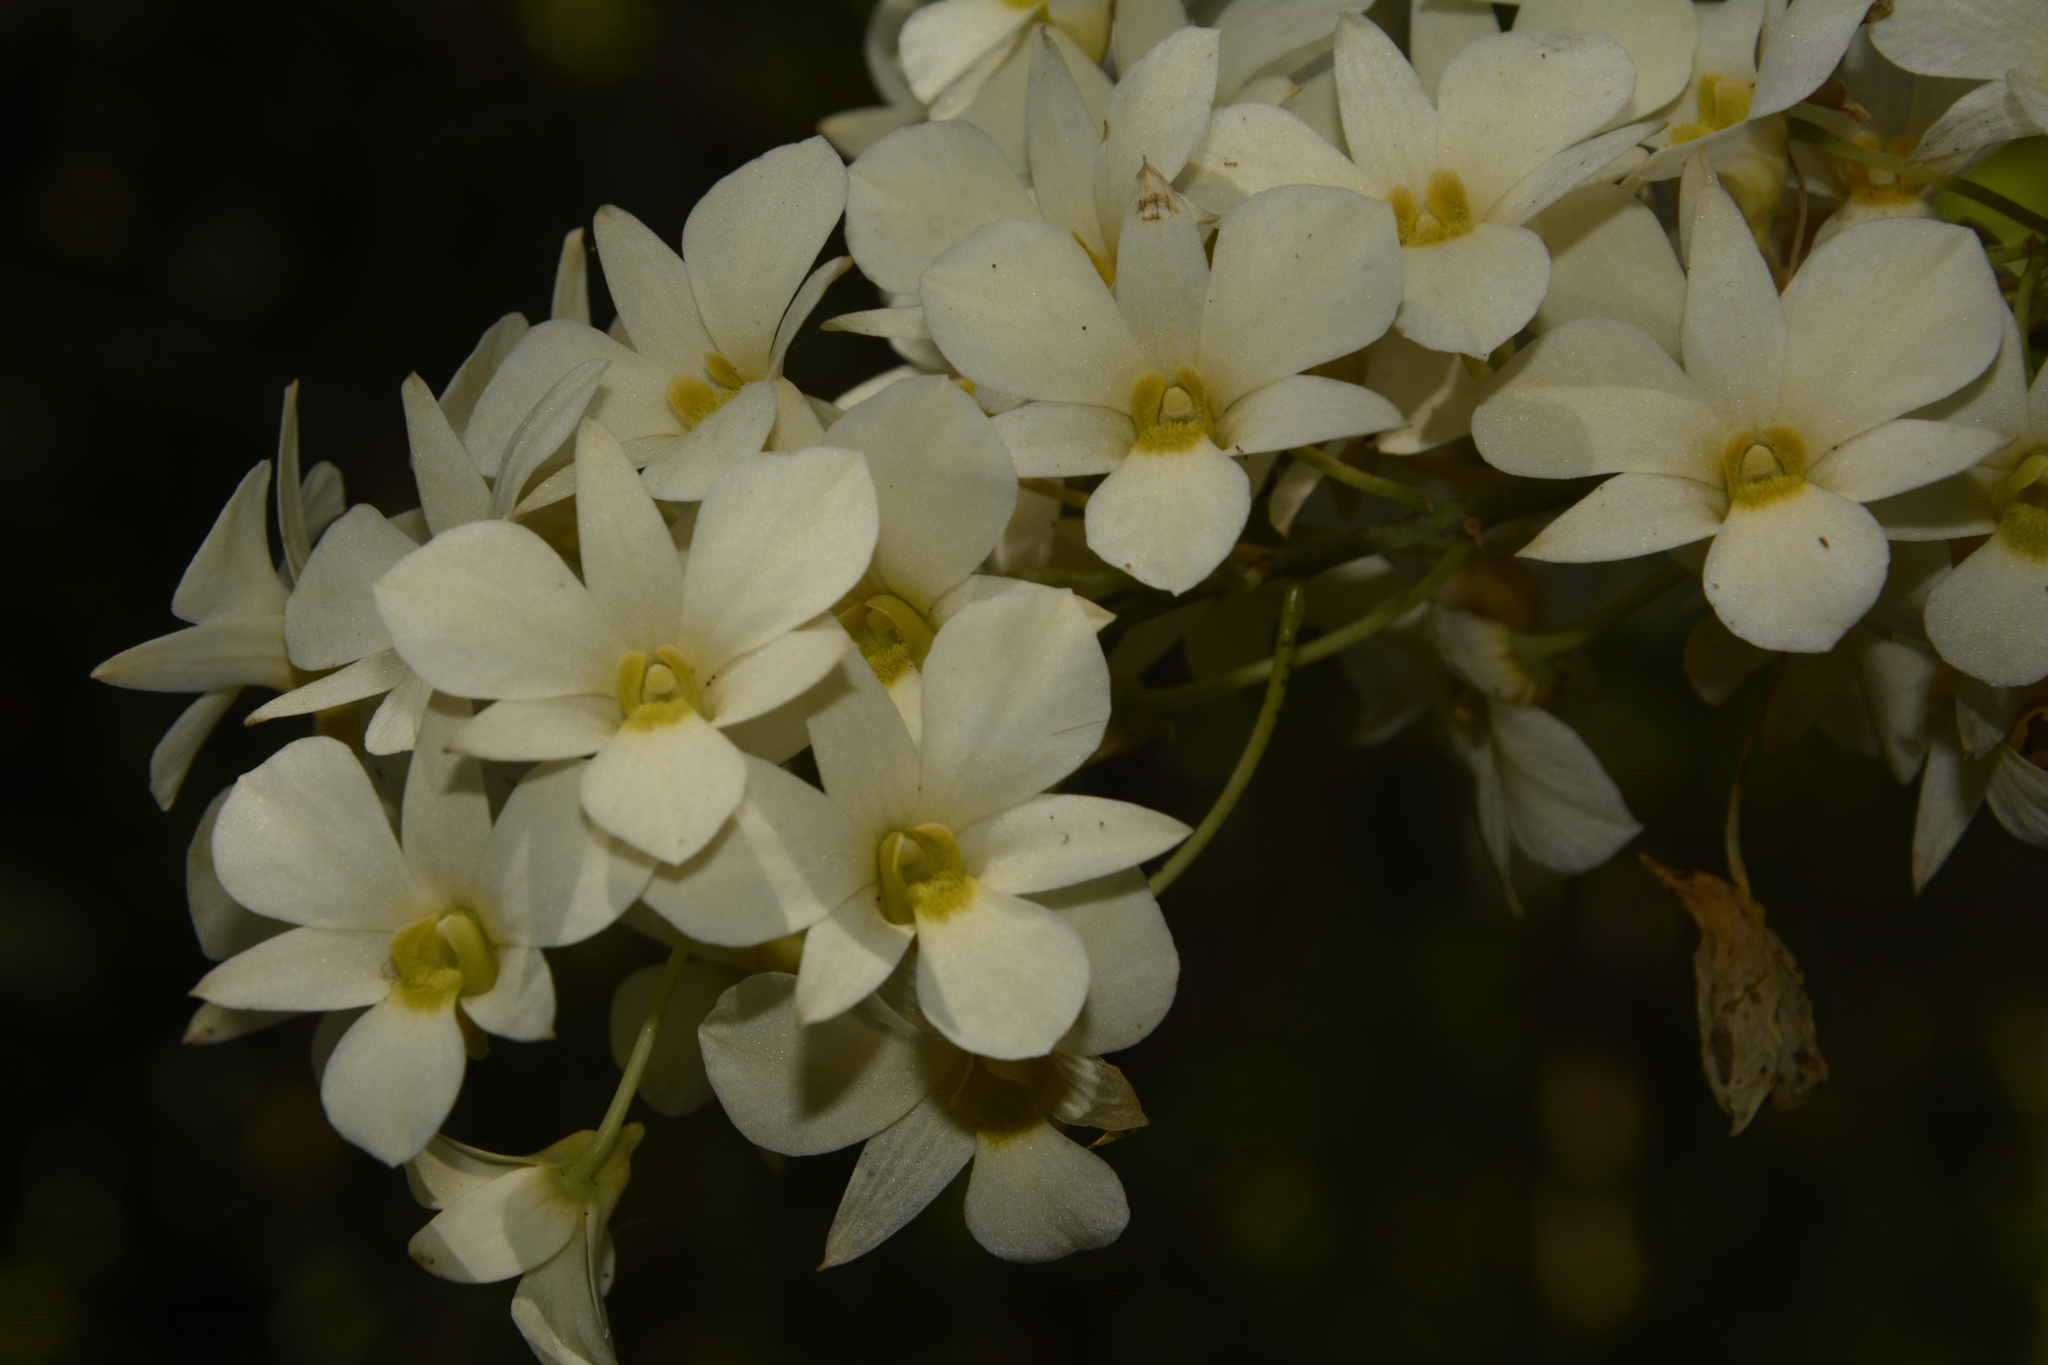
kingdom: Plantae
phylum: Tracheophyta
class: Liliopsida
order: Asparagales
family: Orchidaceae
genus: Dendrobium
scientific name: Dendrobium ovatum
